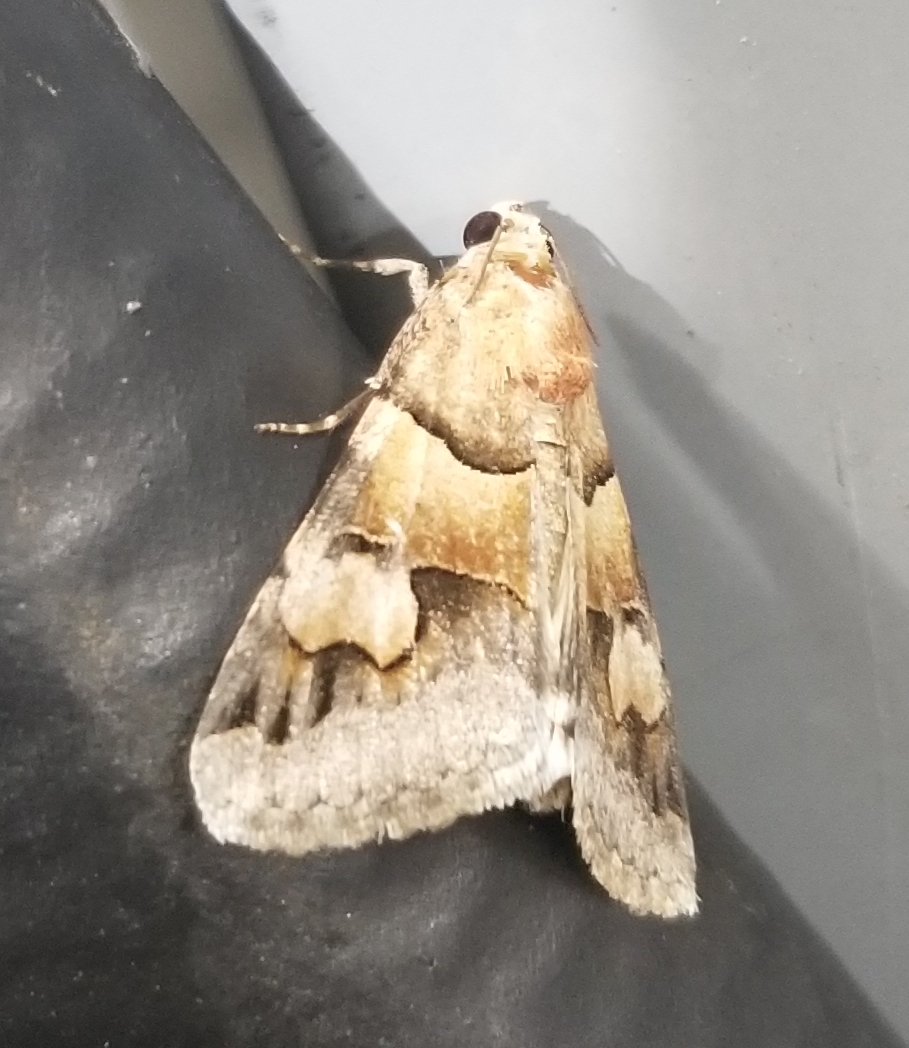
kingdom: Animalia
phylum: Arthropoda
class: Insecta
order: Lepidoptera
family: Erebidae
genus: Drasteria
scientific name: Drasteria pallescens
